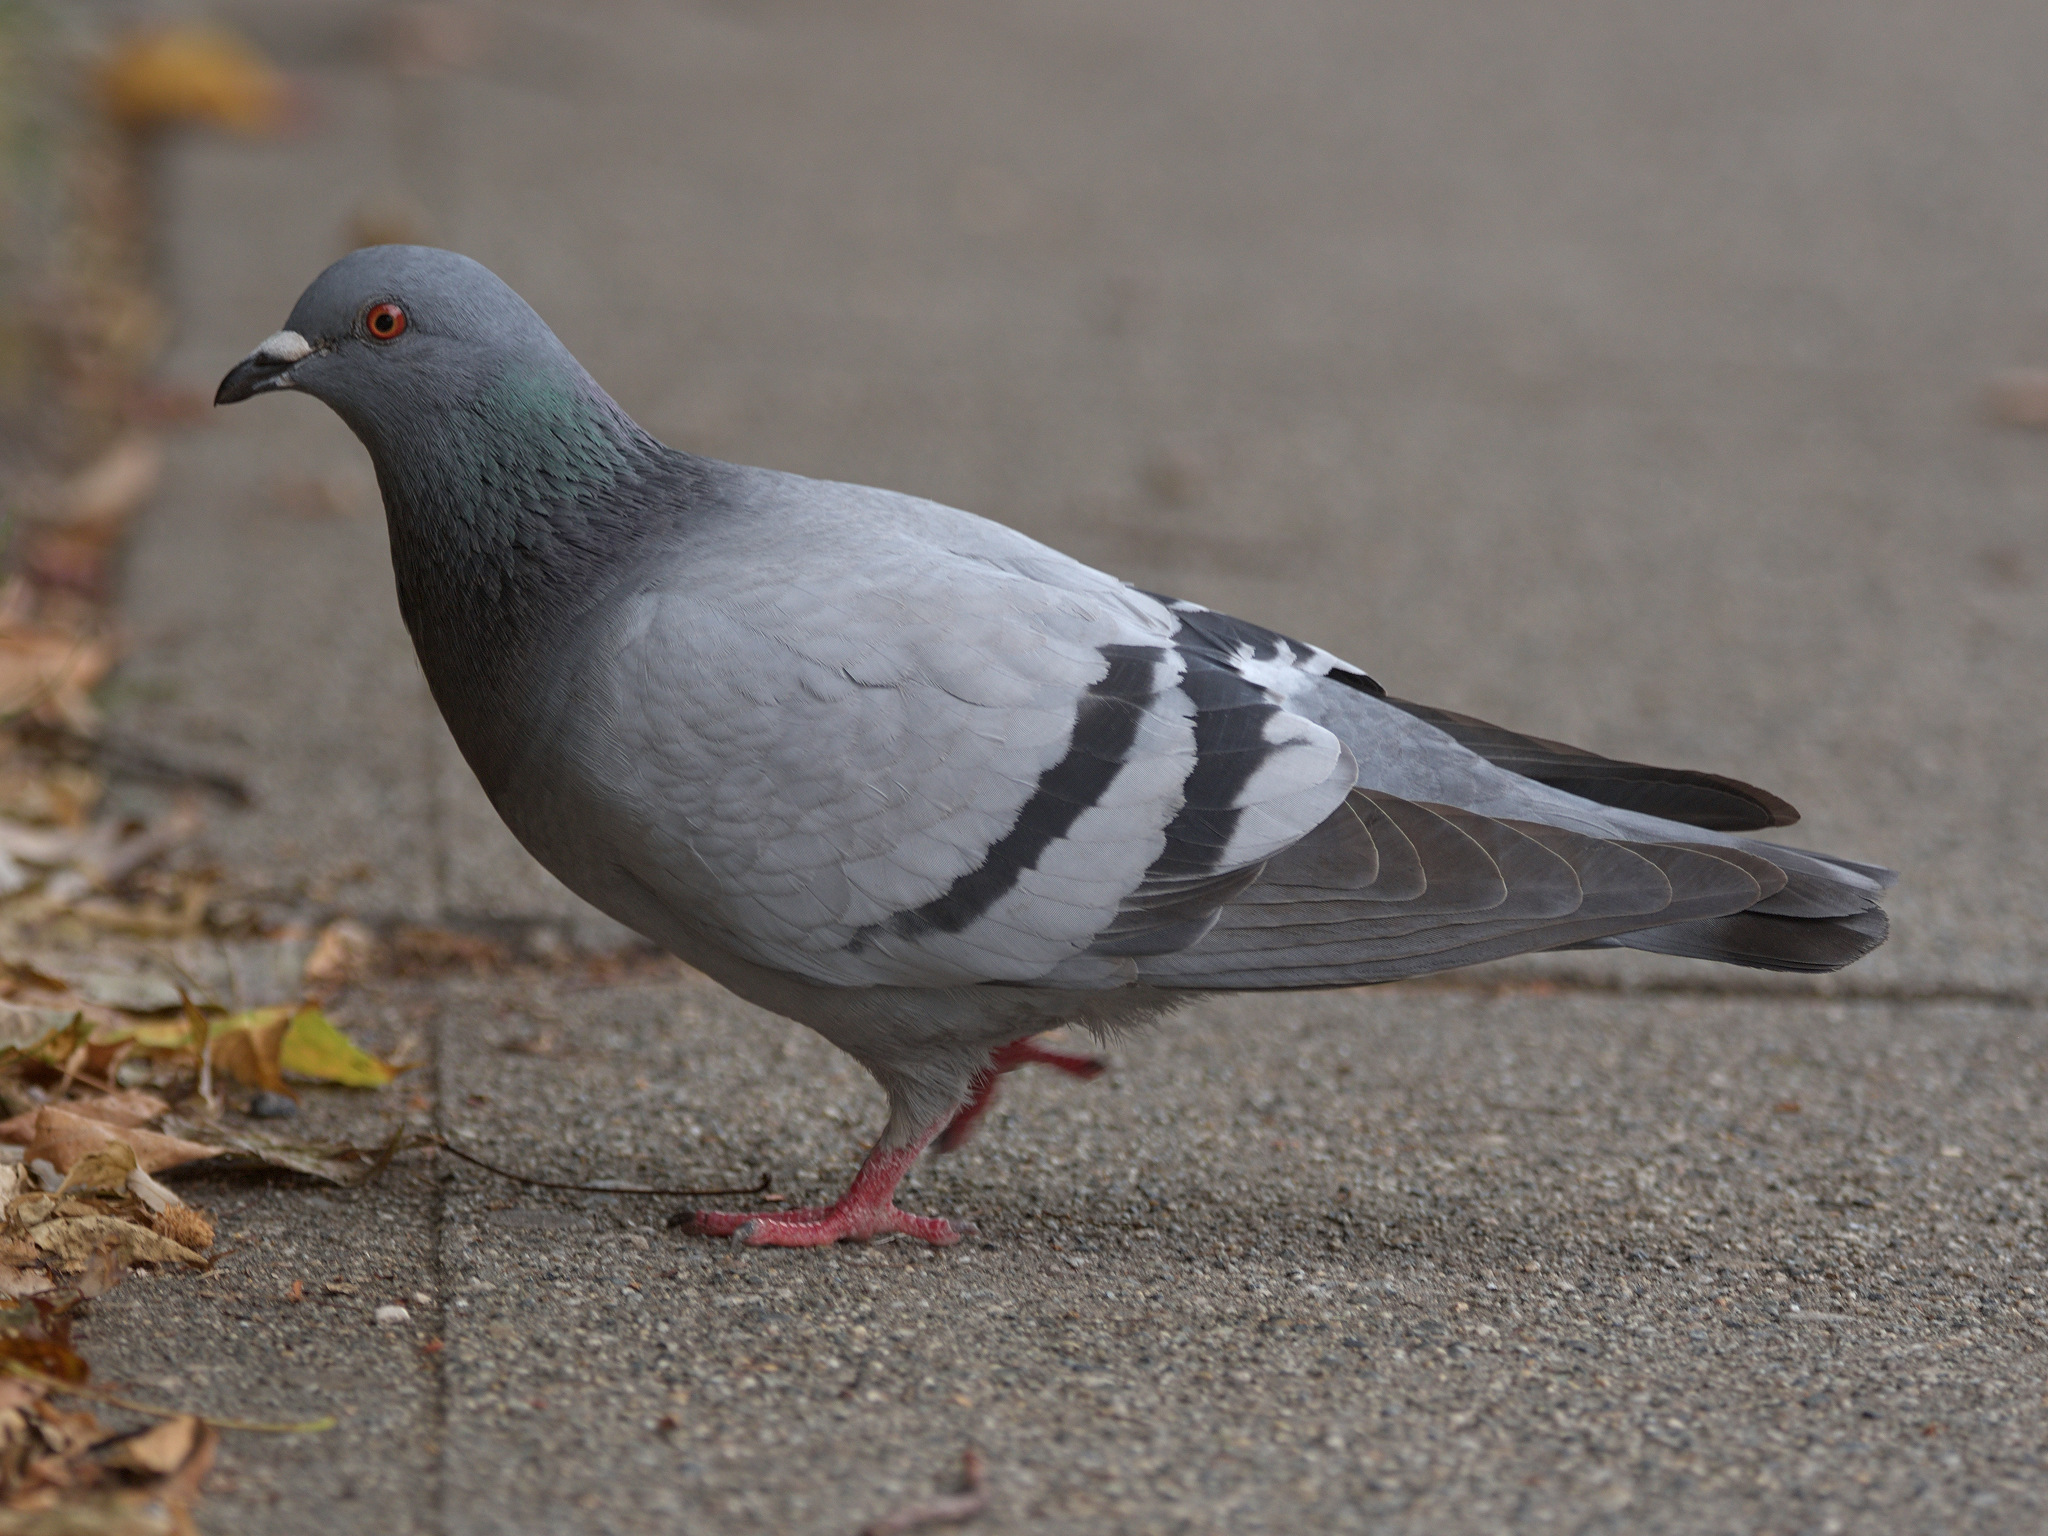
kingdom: Animalia
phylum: Chordata
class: Aves
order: Columbiformes
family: Columbidae
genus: Columba
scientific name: Columba livia
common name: Rock pigeon
